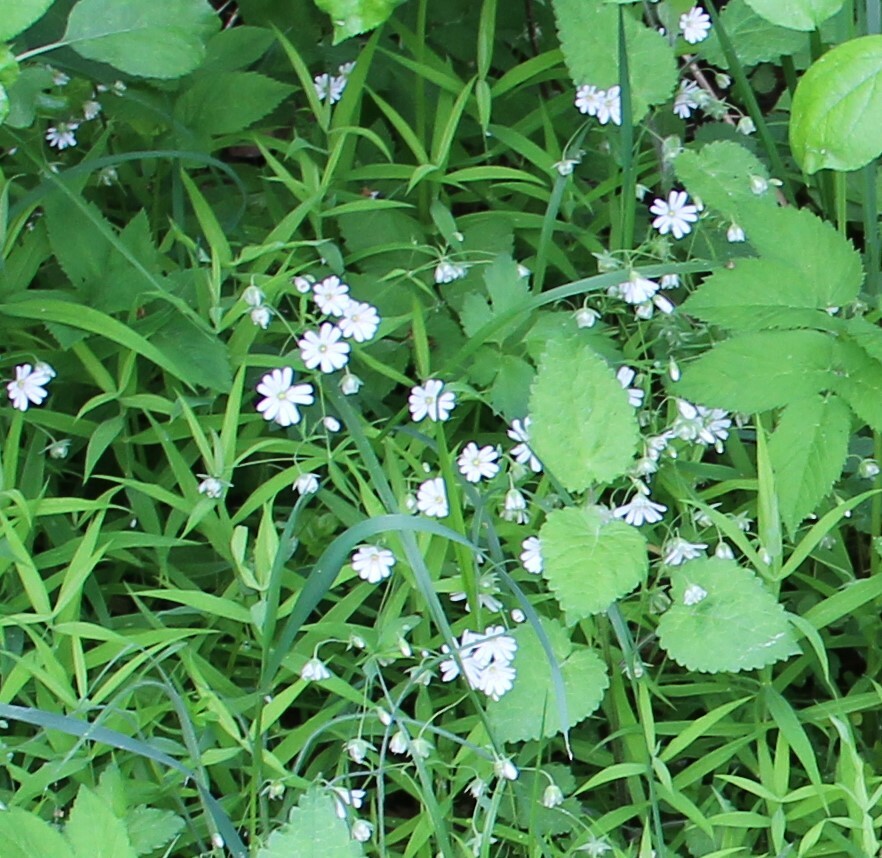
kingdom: Plantae
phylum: Tracheophyta
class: Magnoliopsida
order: Caryophyllales
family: Caryophyllaceae
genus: Rabelera
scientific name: Rabelera holostea
